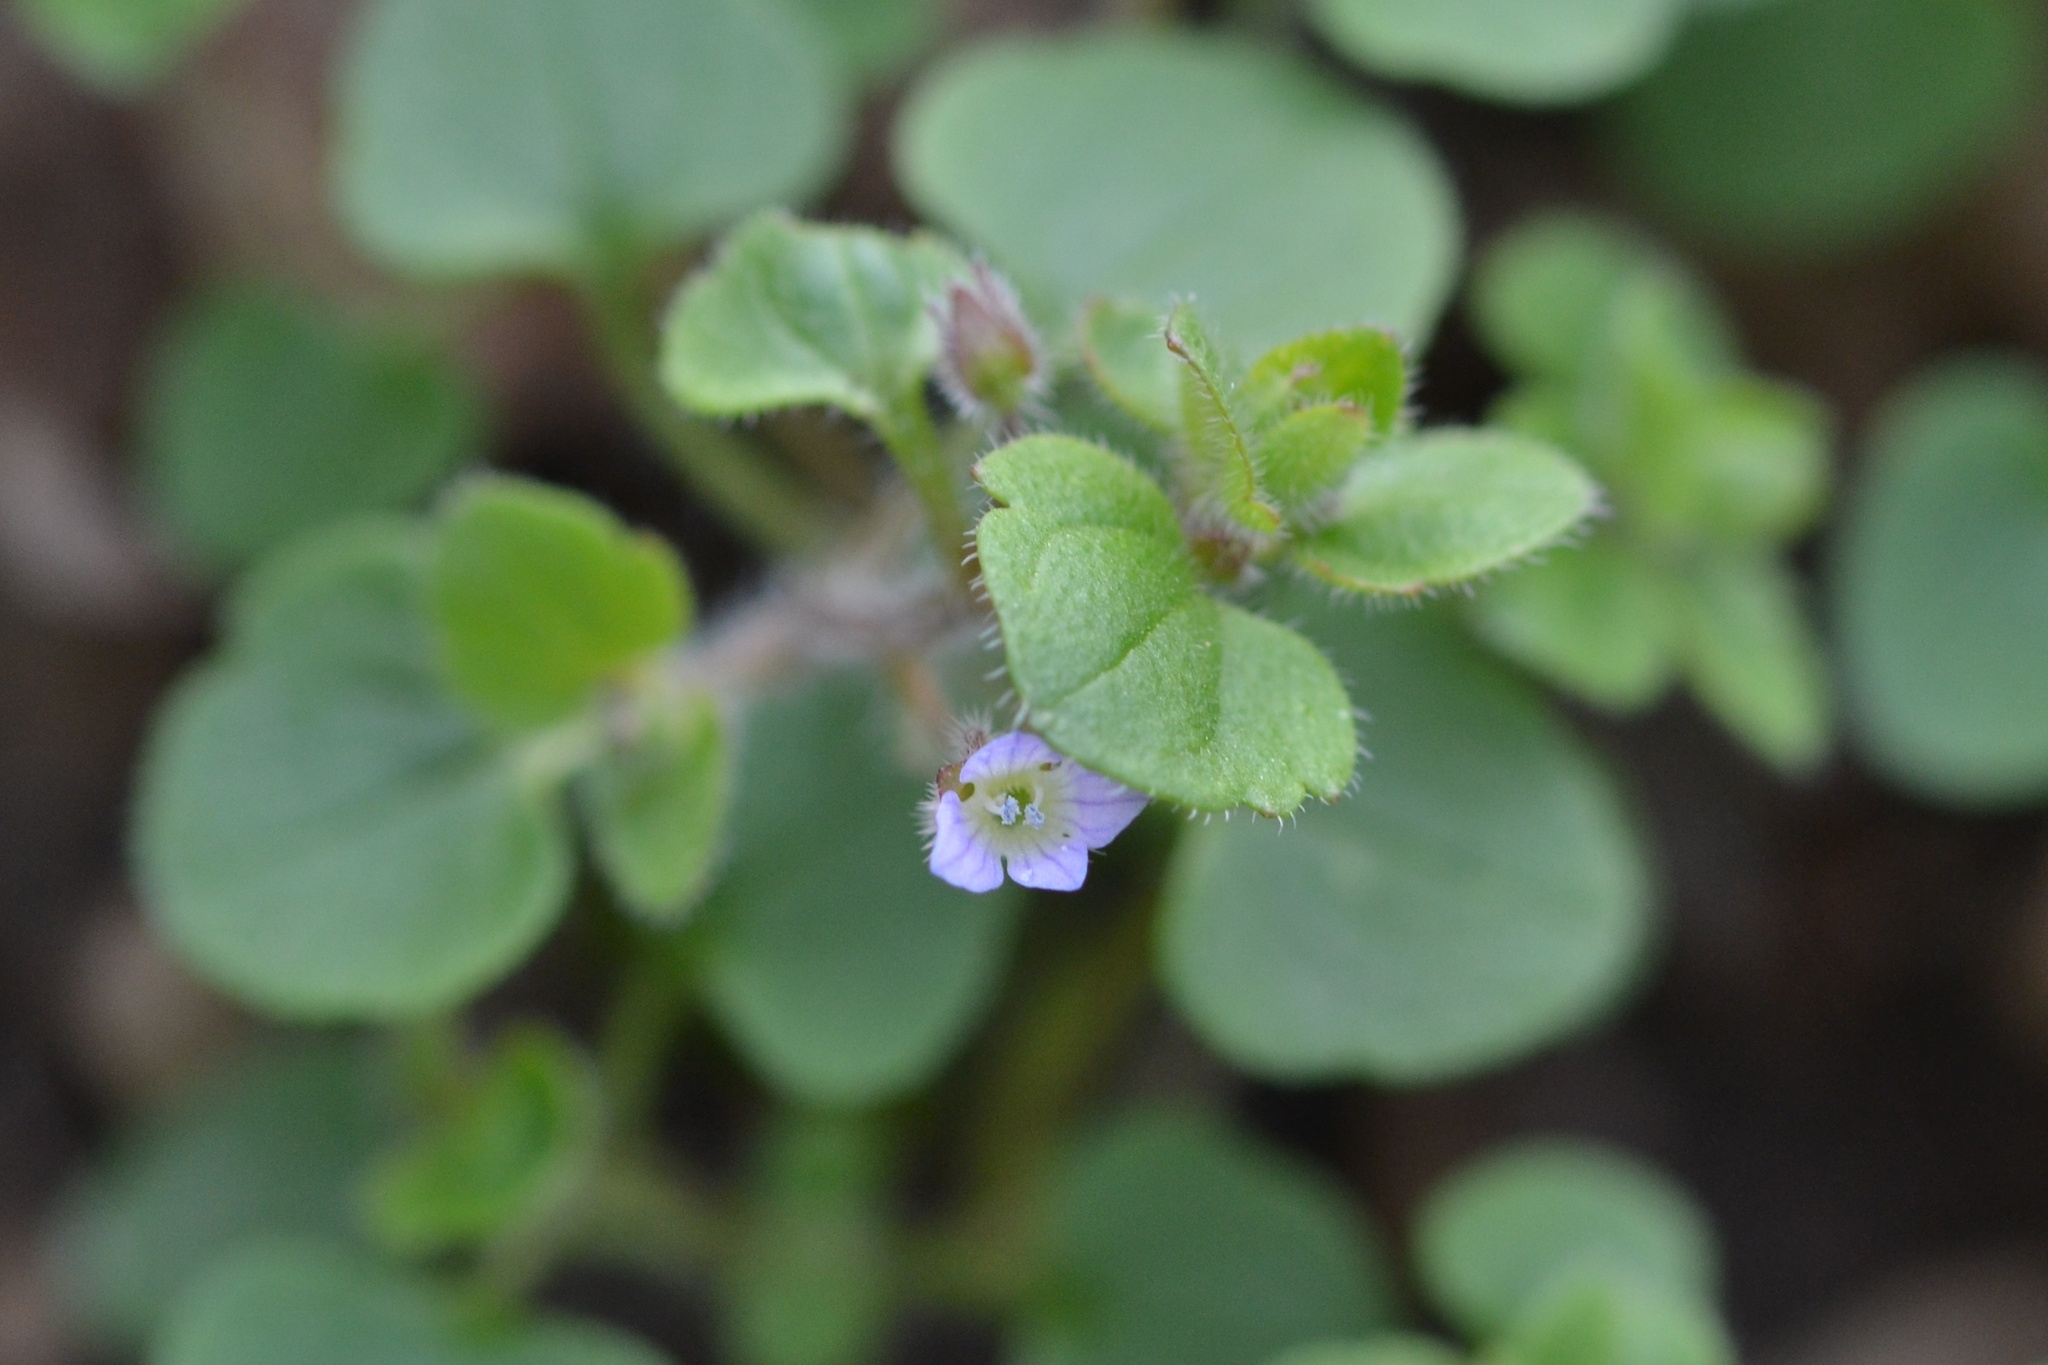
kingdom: Plantae
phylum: Tracheophyta
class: Magnoliopsida
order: Lamiales
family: Plantaginaceae
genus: Veronica
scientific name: Veronica sublobata
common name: False ivy-leaved speedwell
